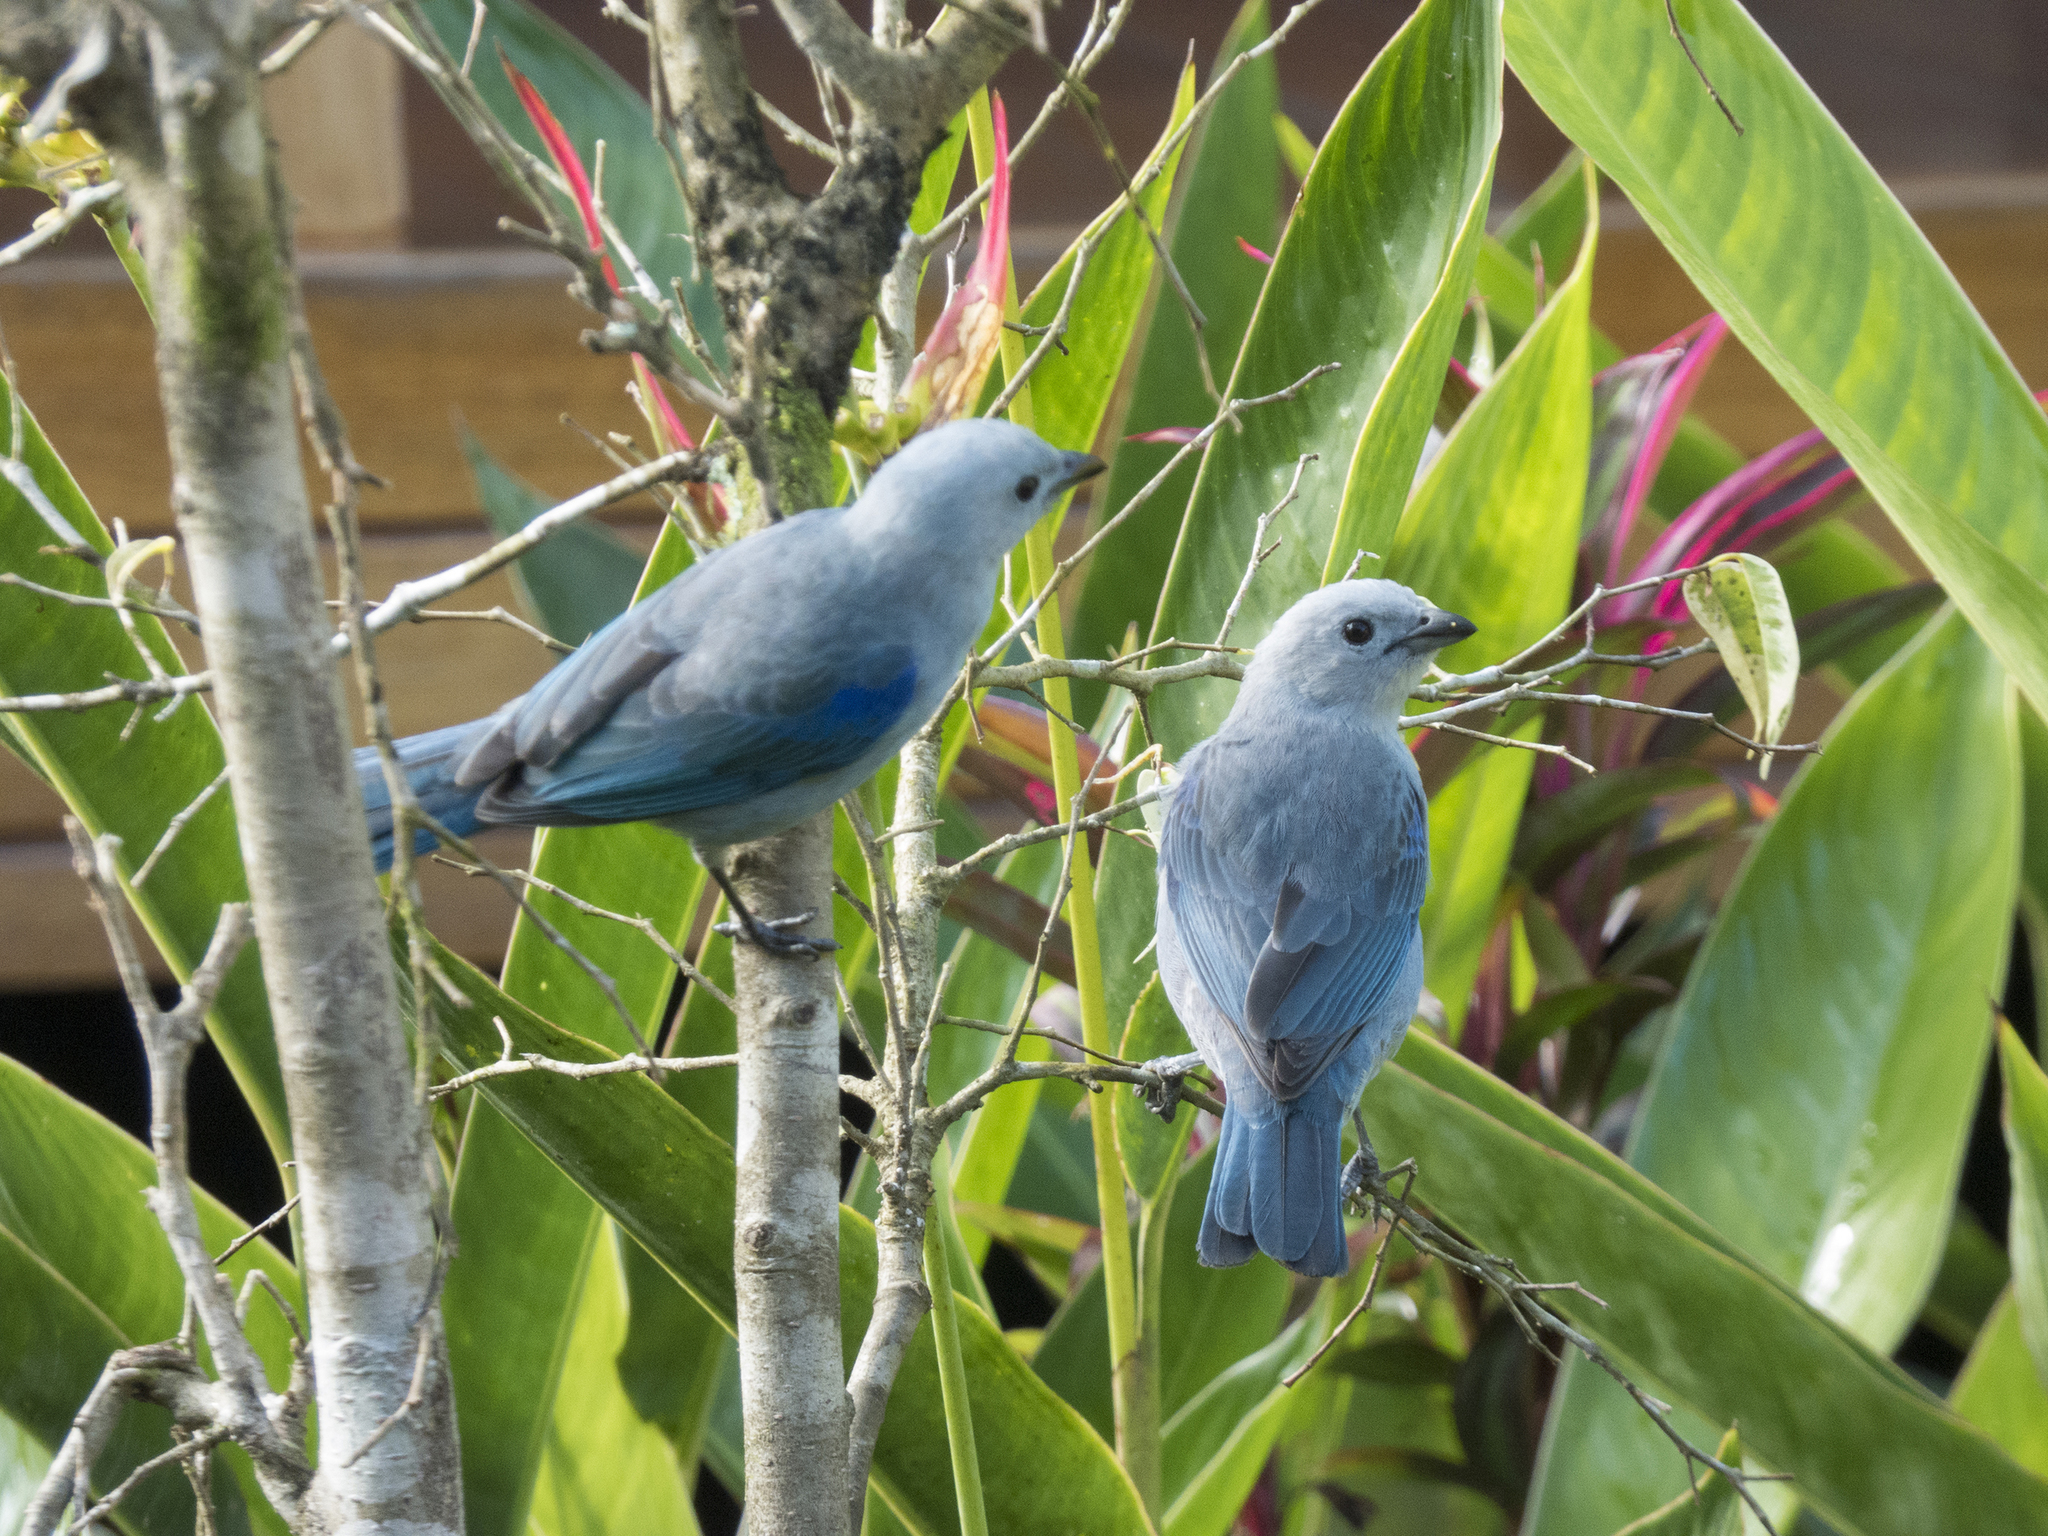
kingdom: Animalia
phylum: Chordata
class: Aves
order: Passeriformes
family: Thraupidae
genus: Thraupis
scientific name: Thraupis episcopus
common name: Blue-grey tanager
